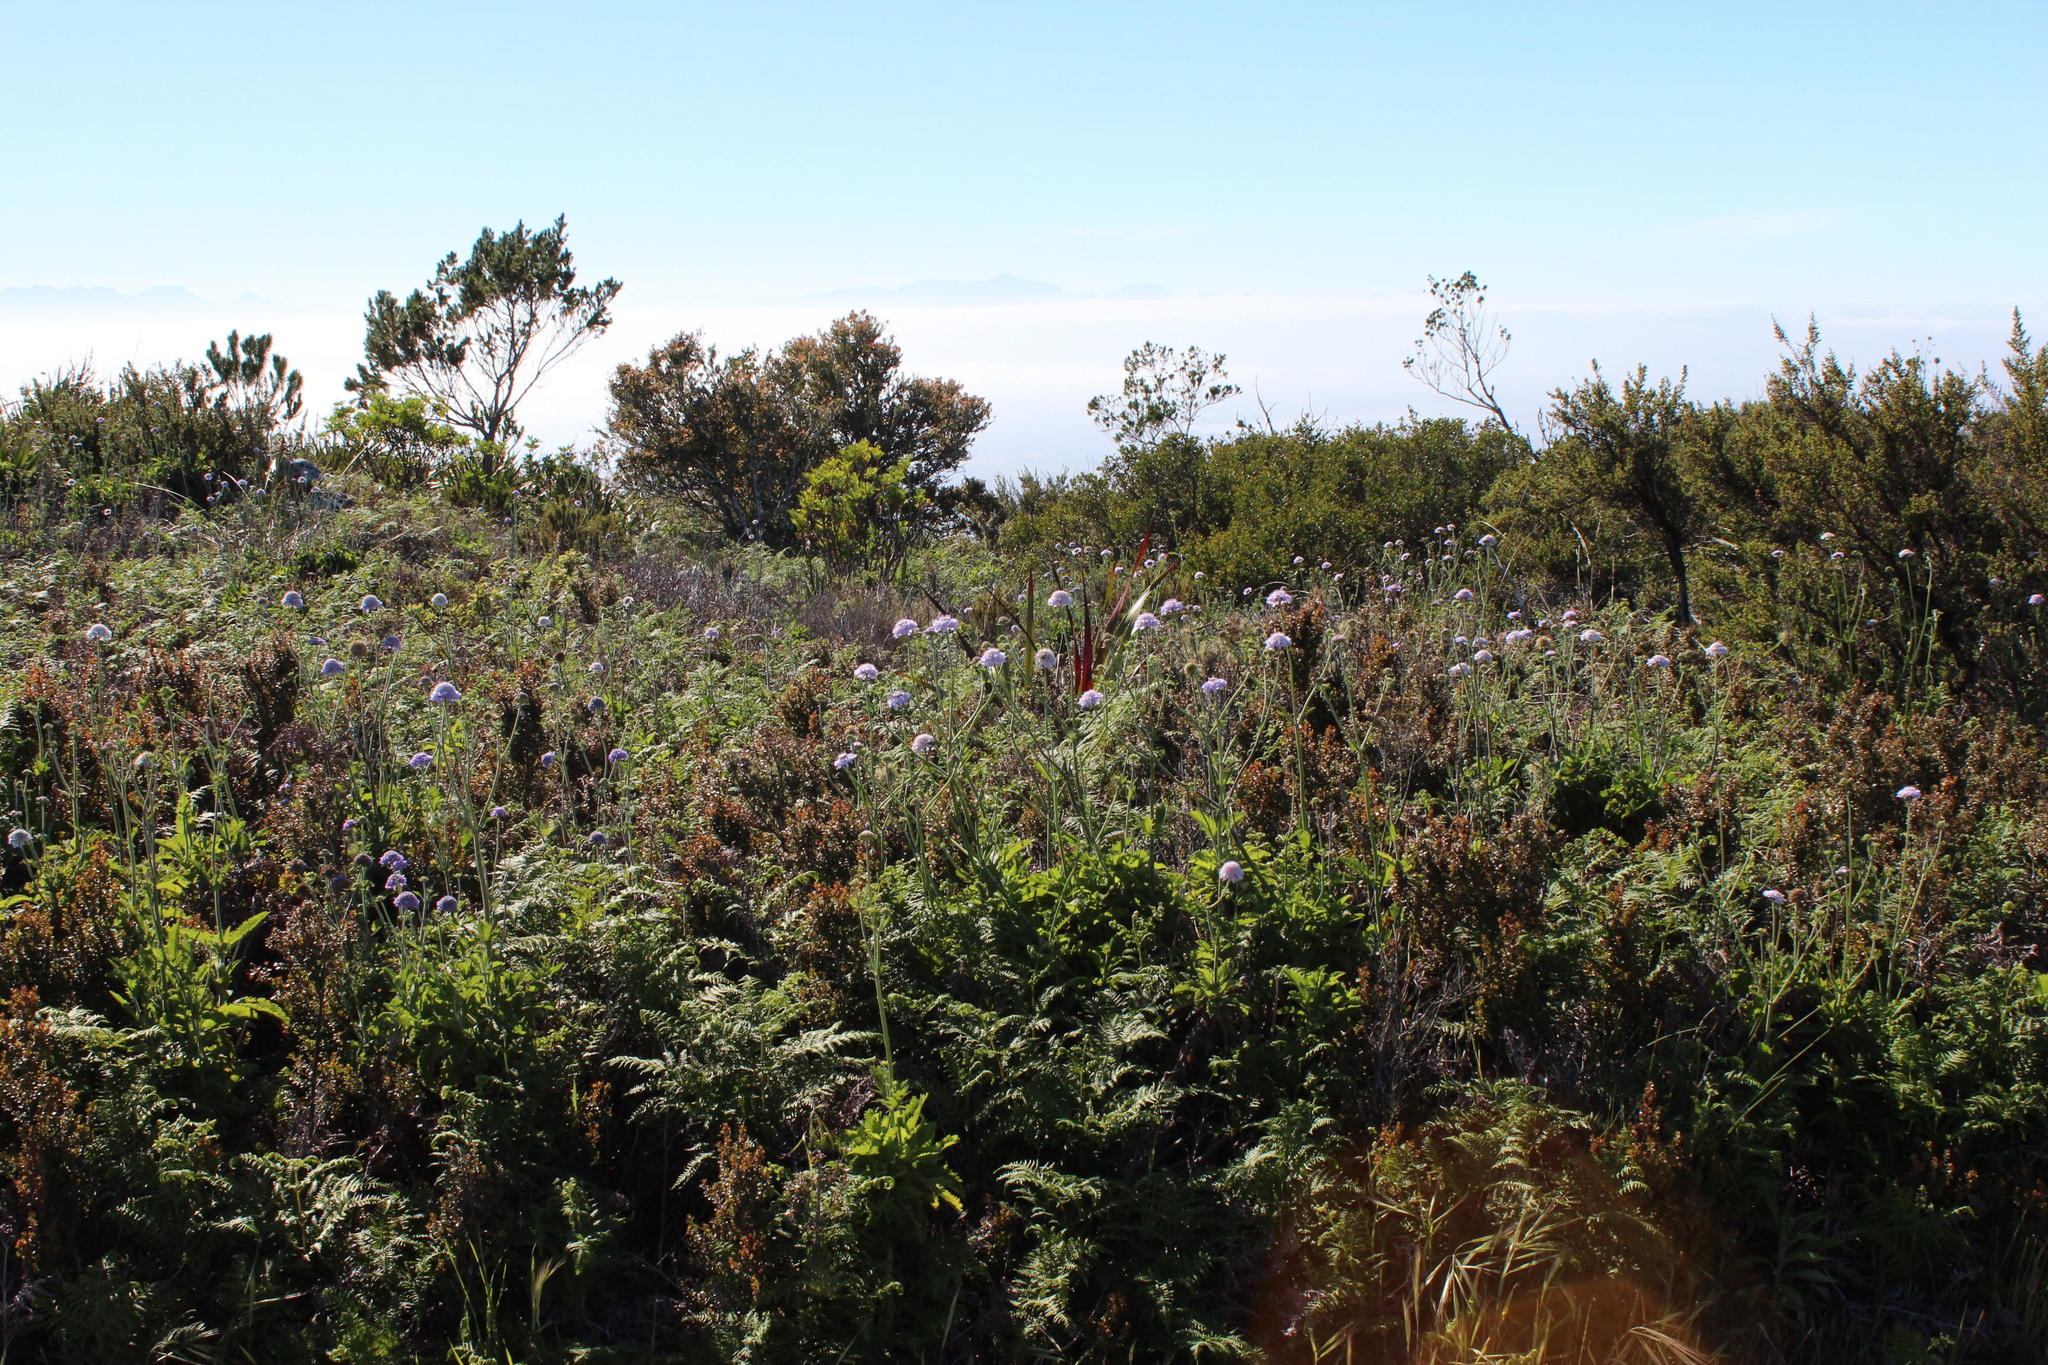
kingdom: Plantae
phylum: Tracheophyta
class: Magnoliopsida
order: Dipsacales
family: Caprifoliaceae
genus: Scabiosa
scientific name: Scabiosa africana
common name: Cape scabious
